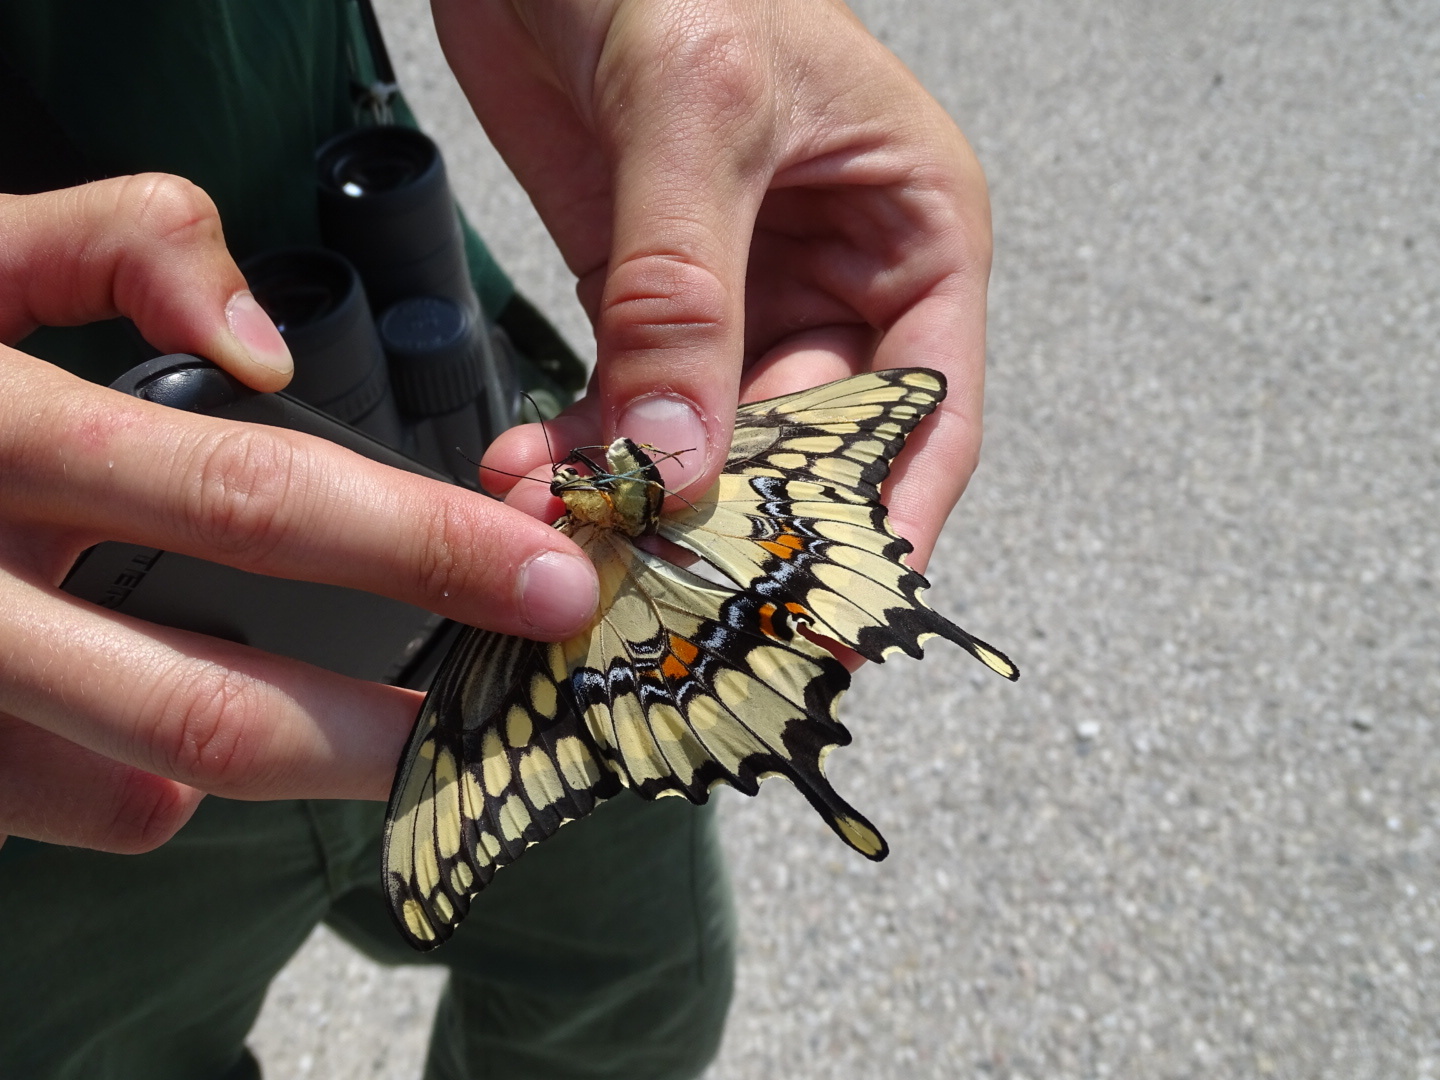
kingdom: Animalia
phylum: Arthropoda
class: Insecta
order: Lepidoptera
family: Papilionidae
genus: Papilio
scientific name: Papilio cresphontes
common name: Giant swallowtail
